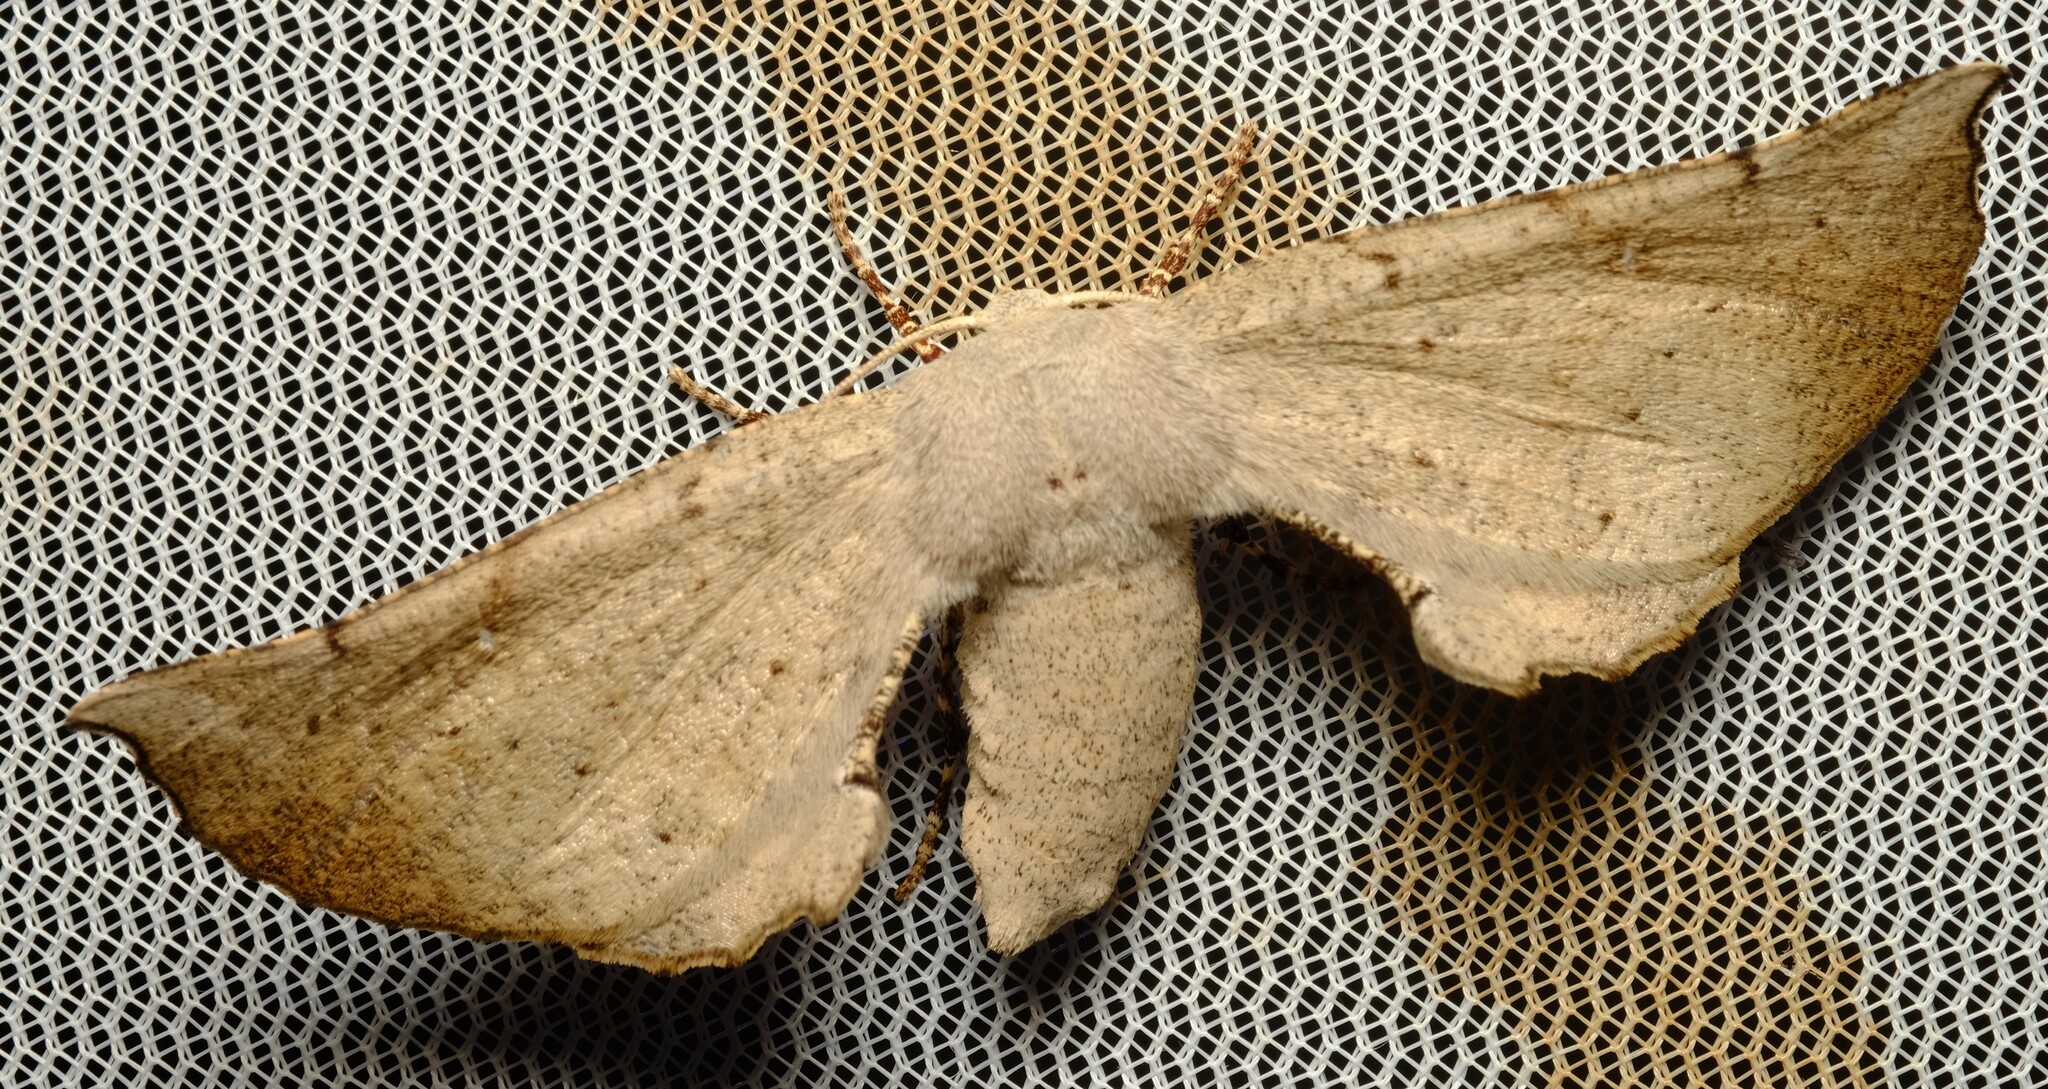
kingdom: Animalia
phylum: Arthropoda
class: Insecta
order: Lepidoptera
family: Geometridae
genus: Circopetes
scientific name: Circopetes obtusata
